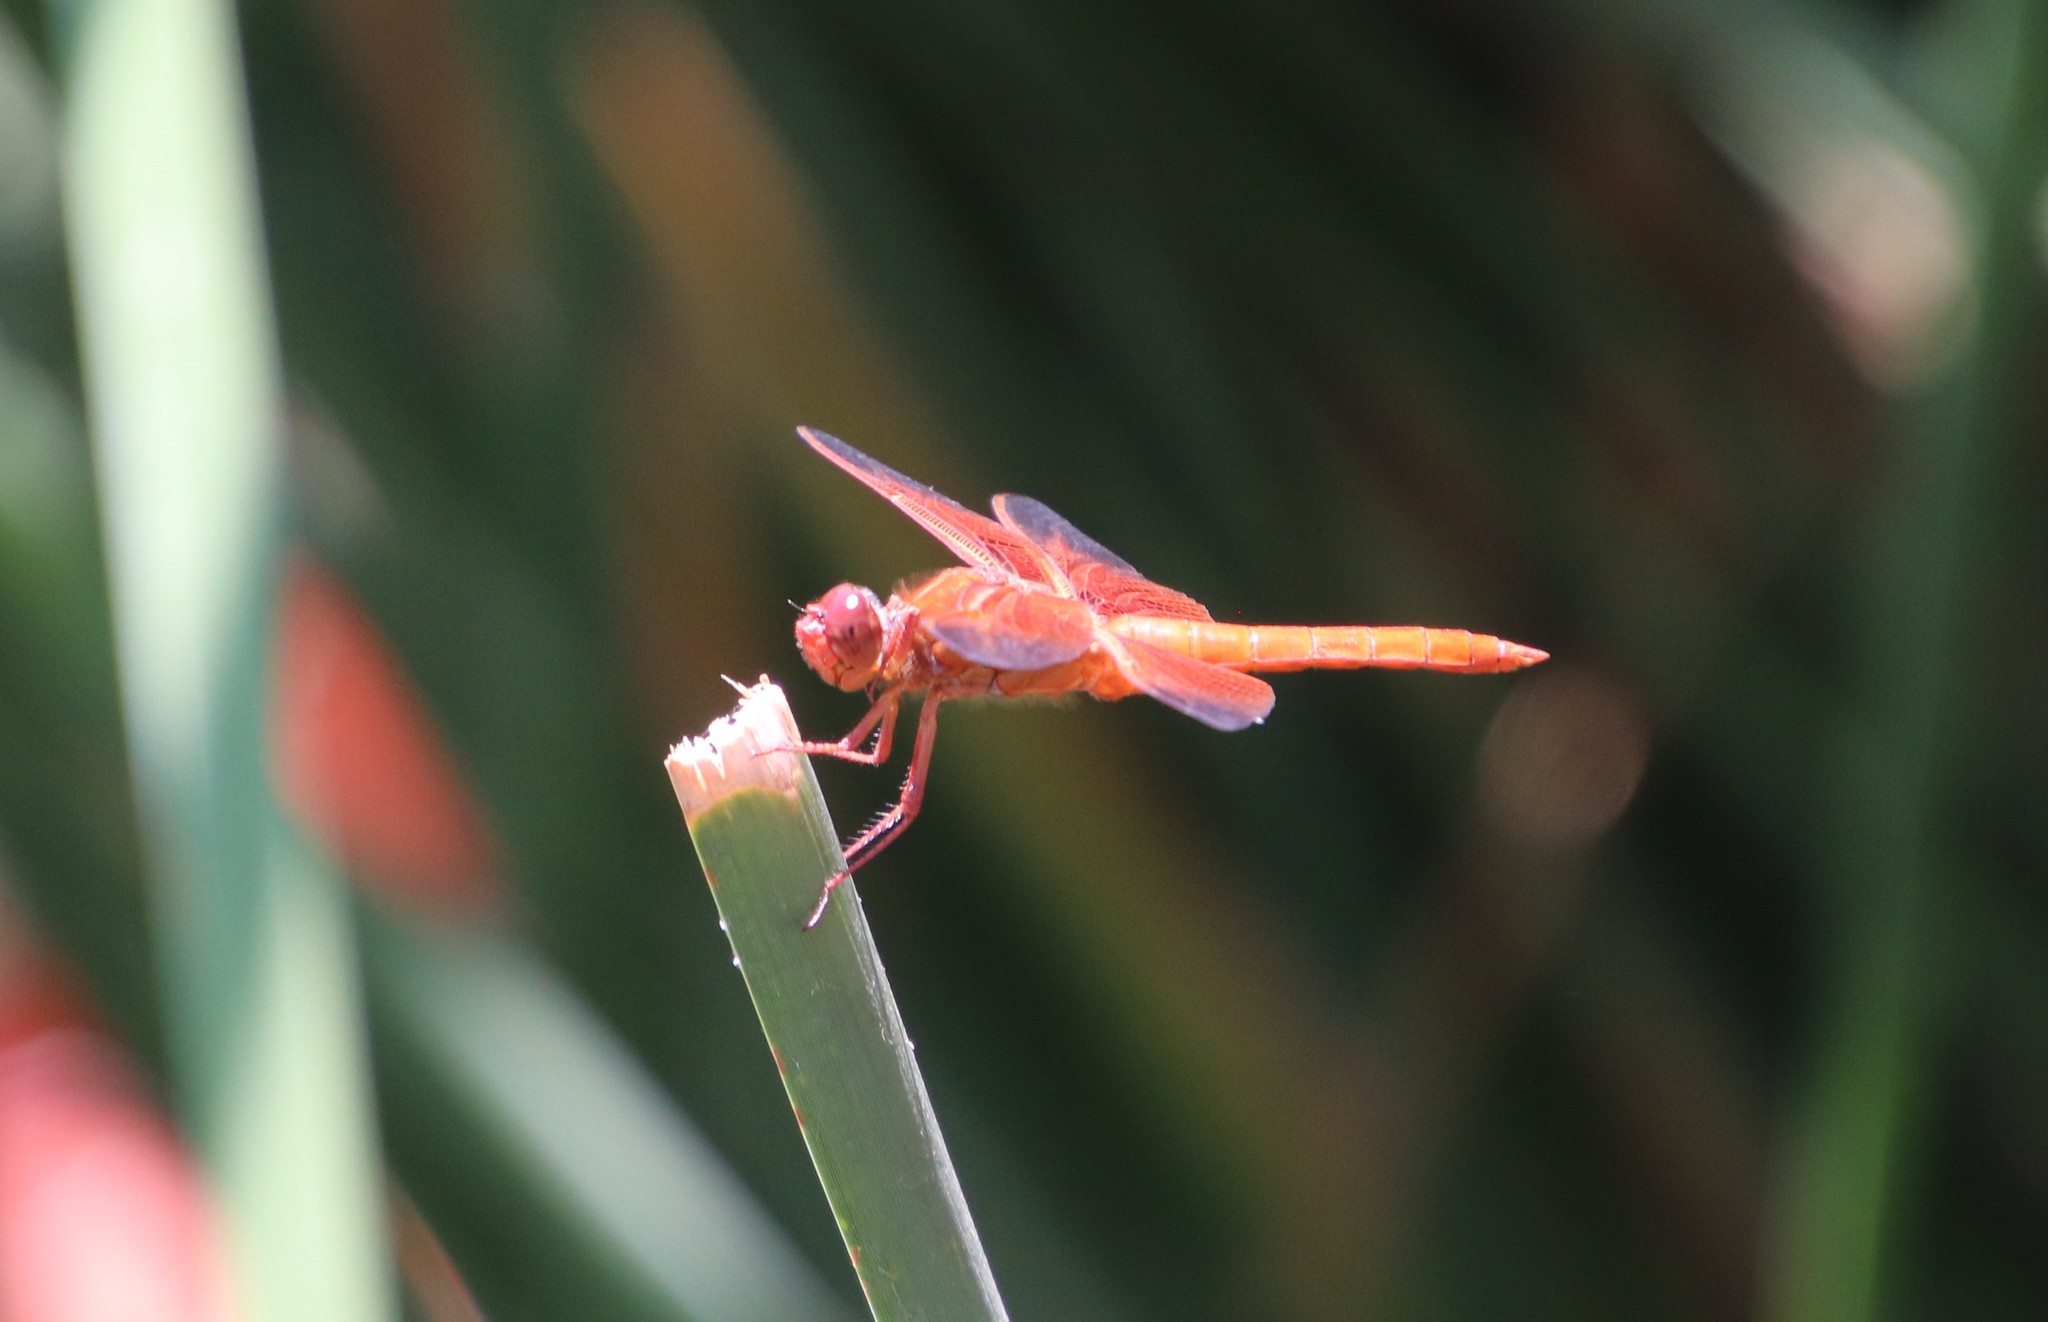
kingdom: Animalia
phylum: Arthropoda
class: Insecta
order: Odonata
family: Libellulidae
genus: Libellula
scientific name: Libellula saturata
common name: Flame skimmer
